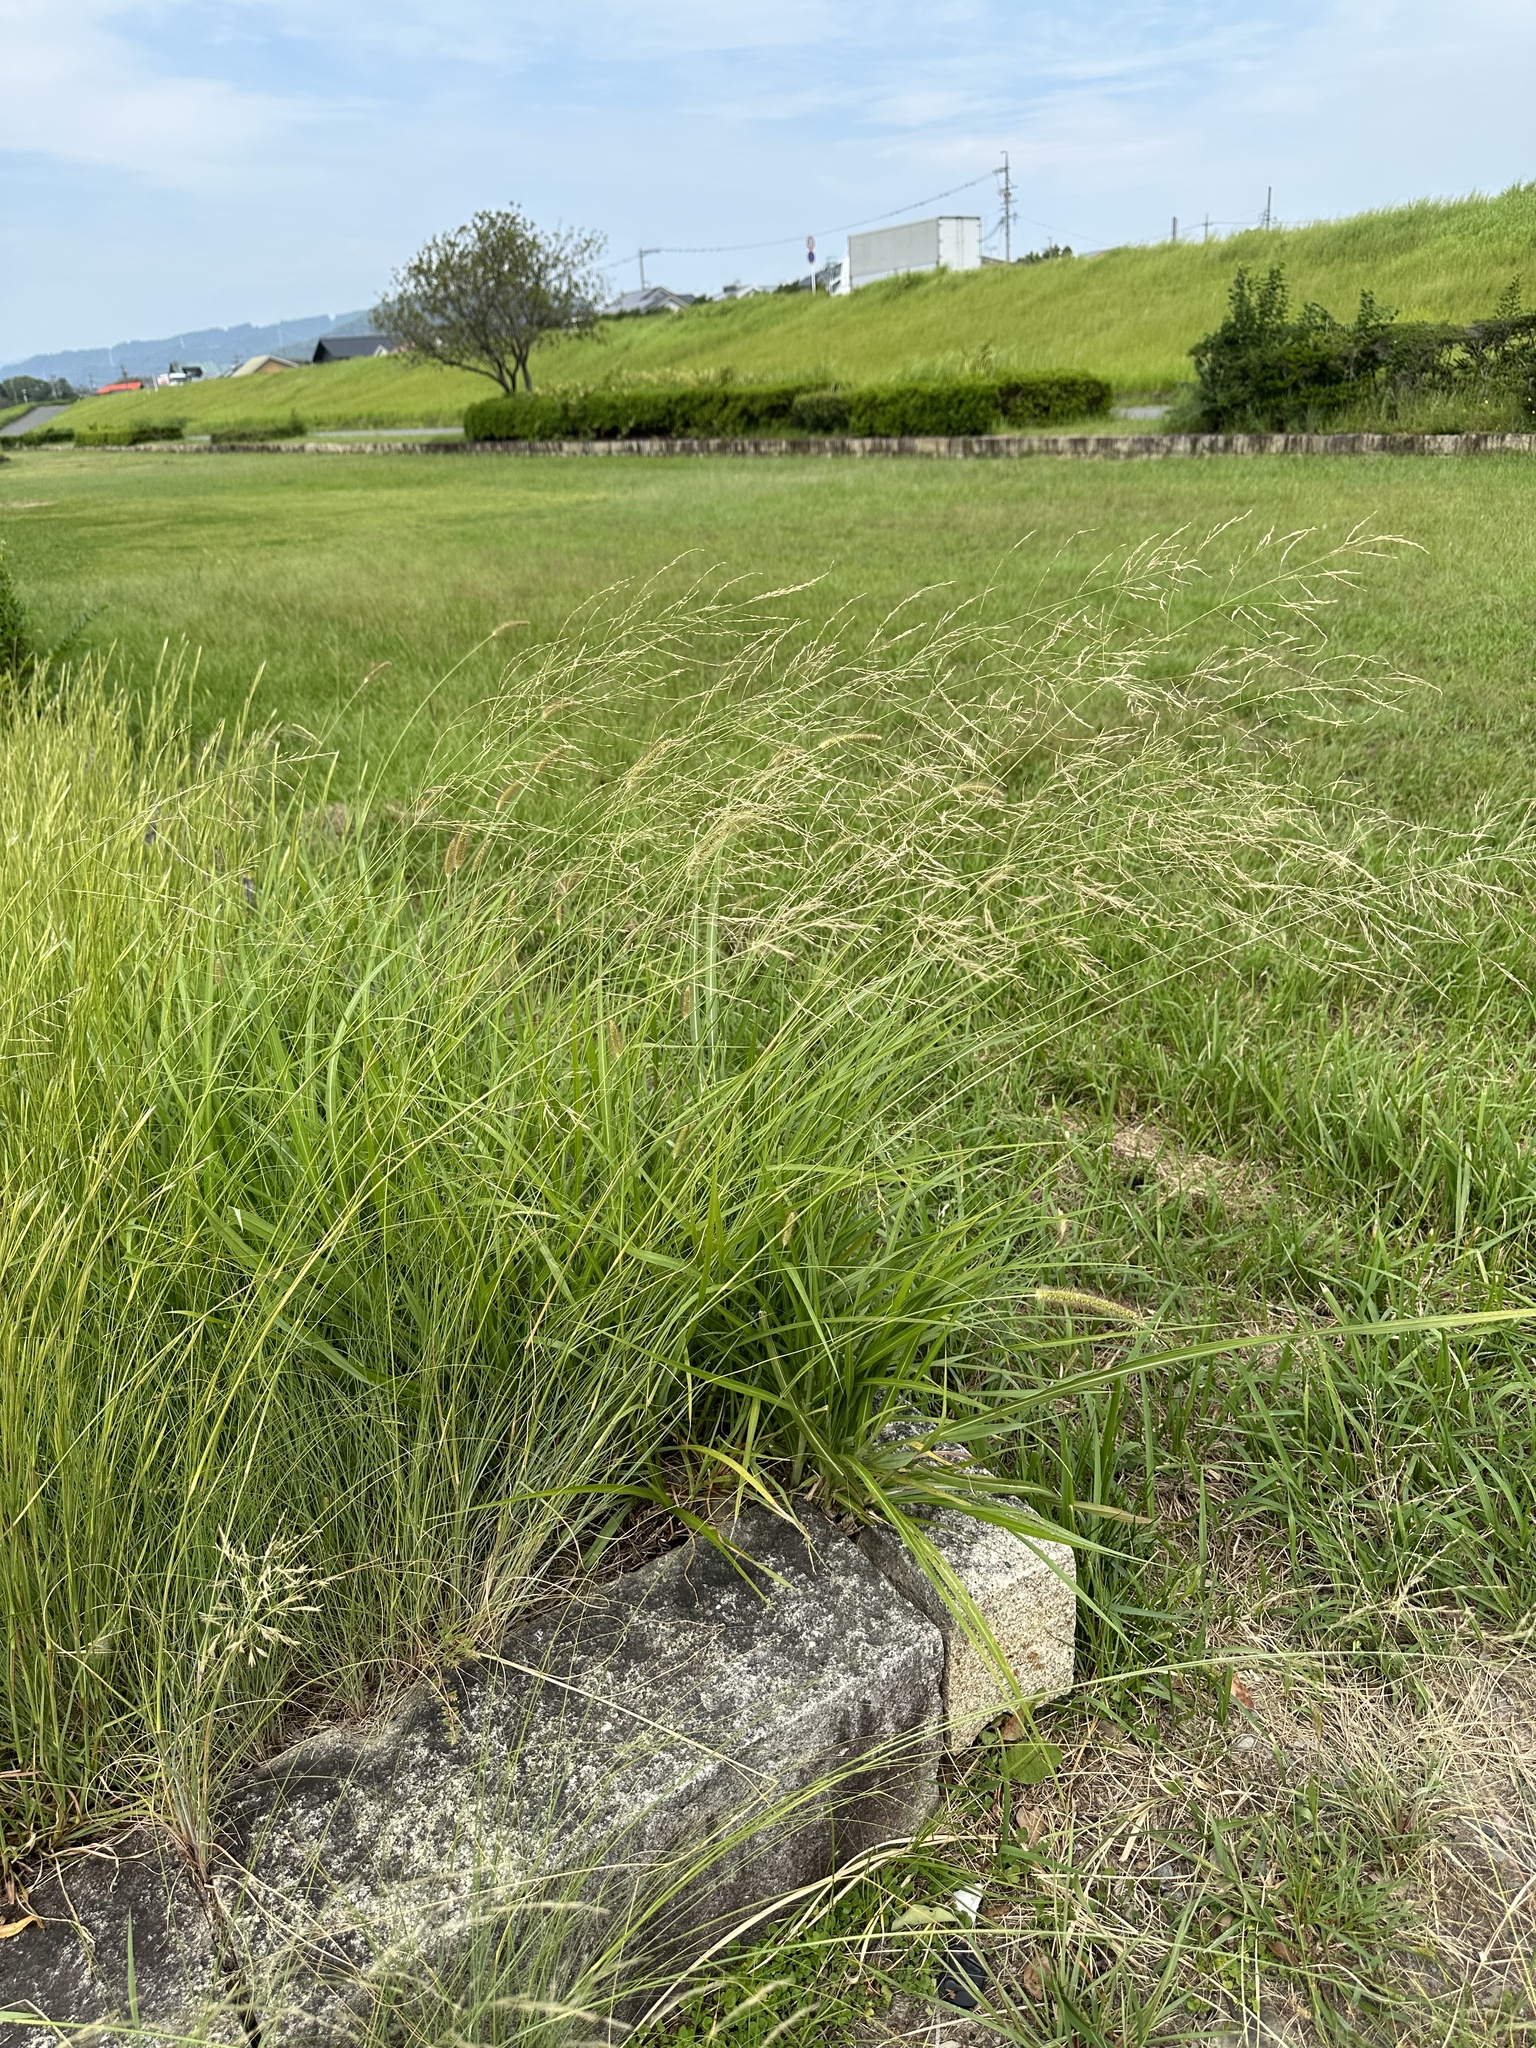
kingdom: Plantae
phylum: Tracheophyta
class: Liliopsida
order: Poales
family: Poaceae
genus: Eragrostis
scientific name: Eragrostis curvula
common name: African love-grass
